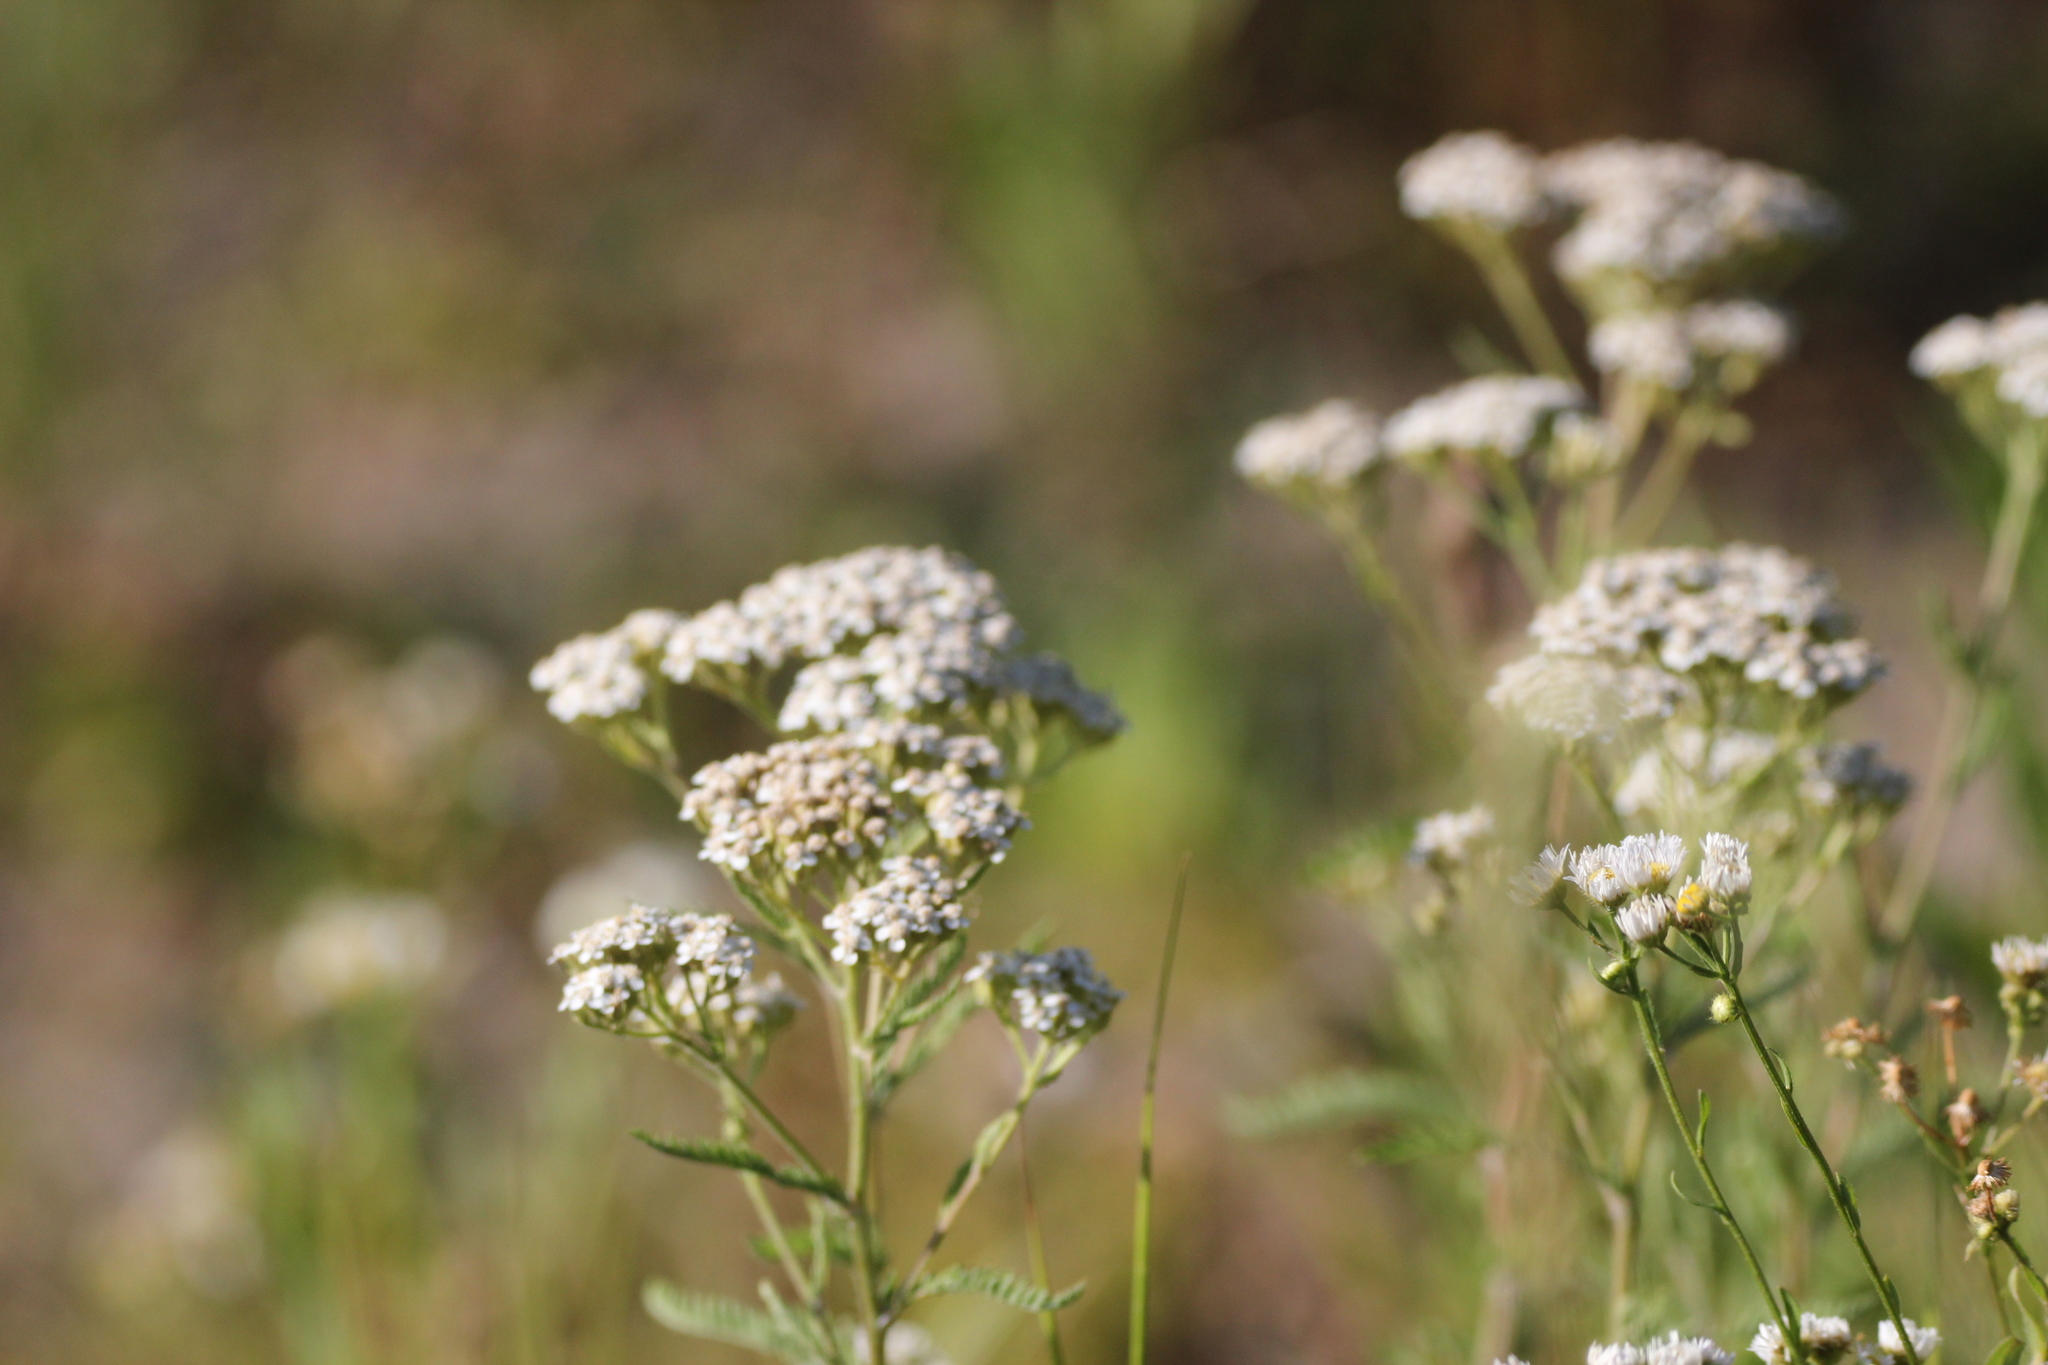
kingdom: Plantae
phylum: Tracheophyta
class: Magnoliopsida
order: Asterales
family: Asteraceae
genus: Achillea
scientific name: Achillea millefolium
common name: Yarrow
